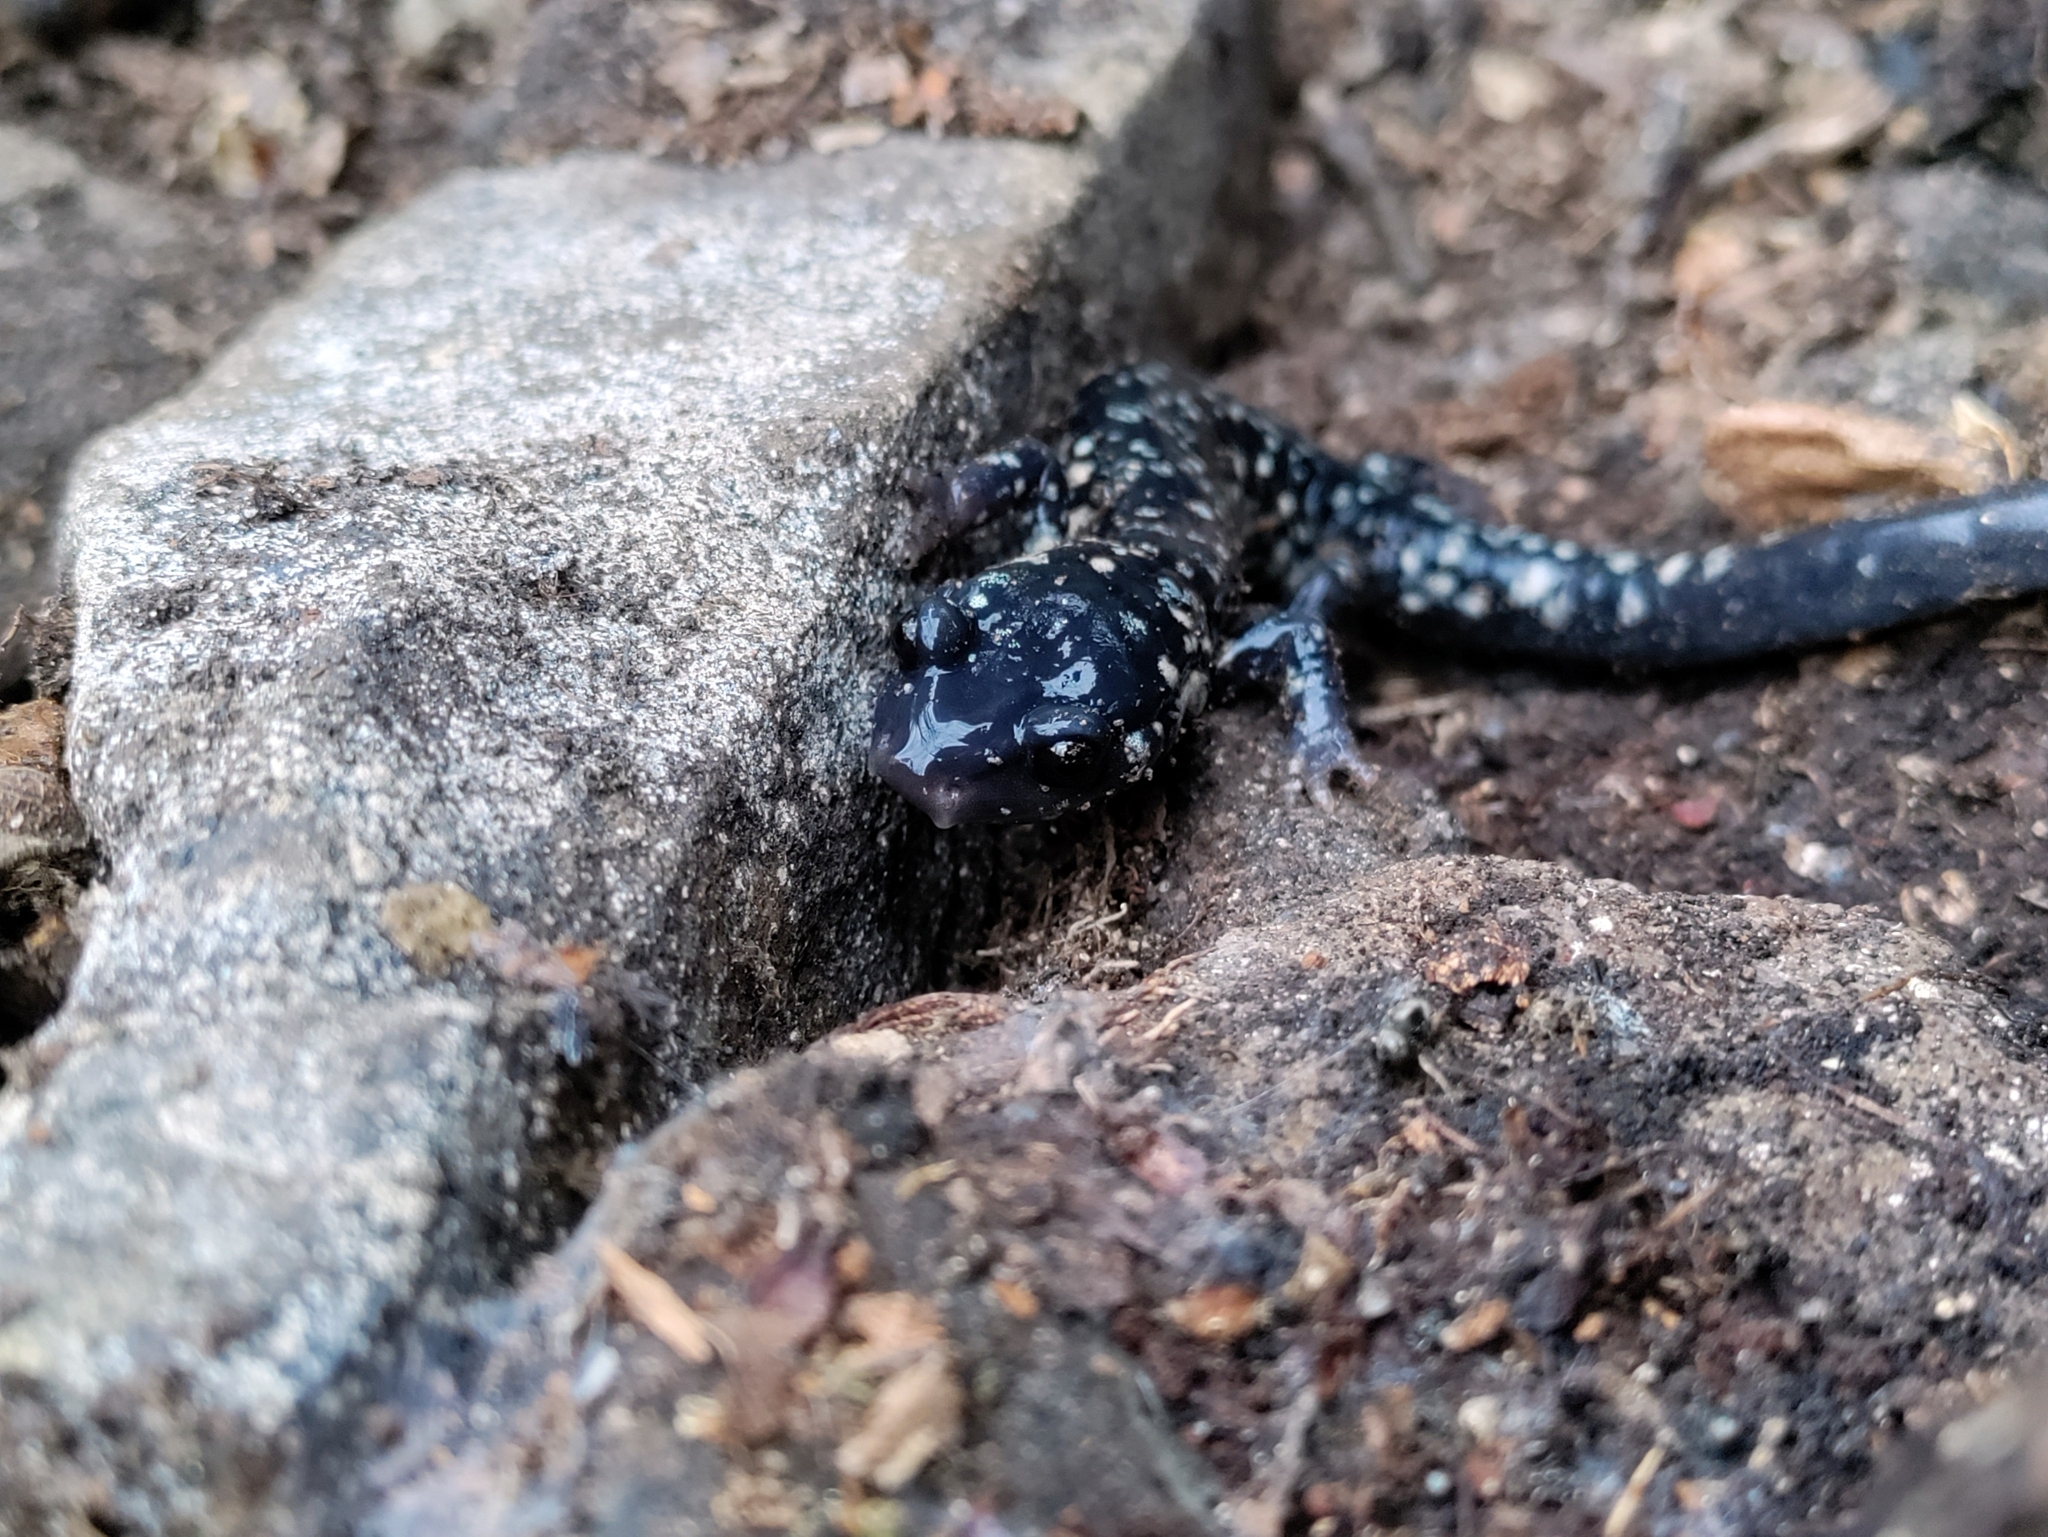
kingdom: Animalia
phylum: Chordata
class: Amphibia
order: Caudata
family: Plethodontidae
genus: Plethodon
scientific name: Plethodon glutinosus
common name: Northern slimy salamander
